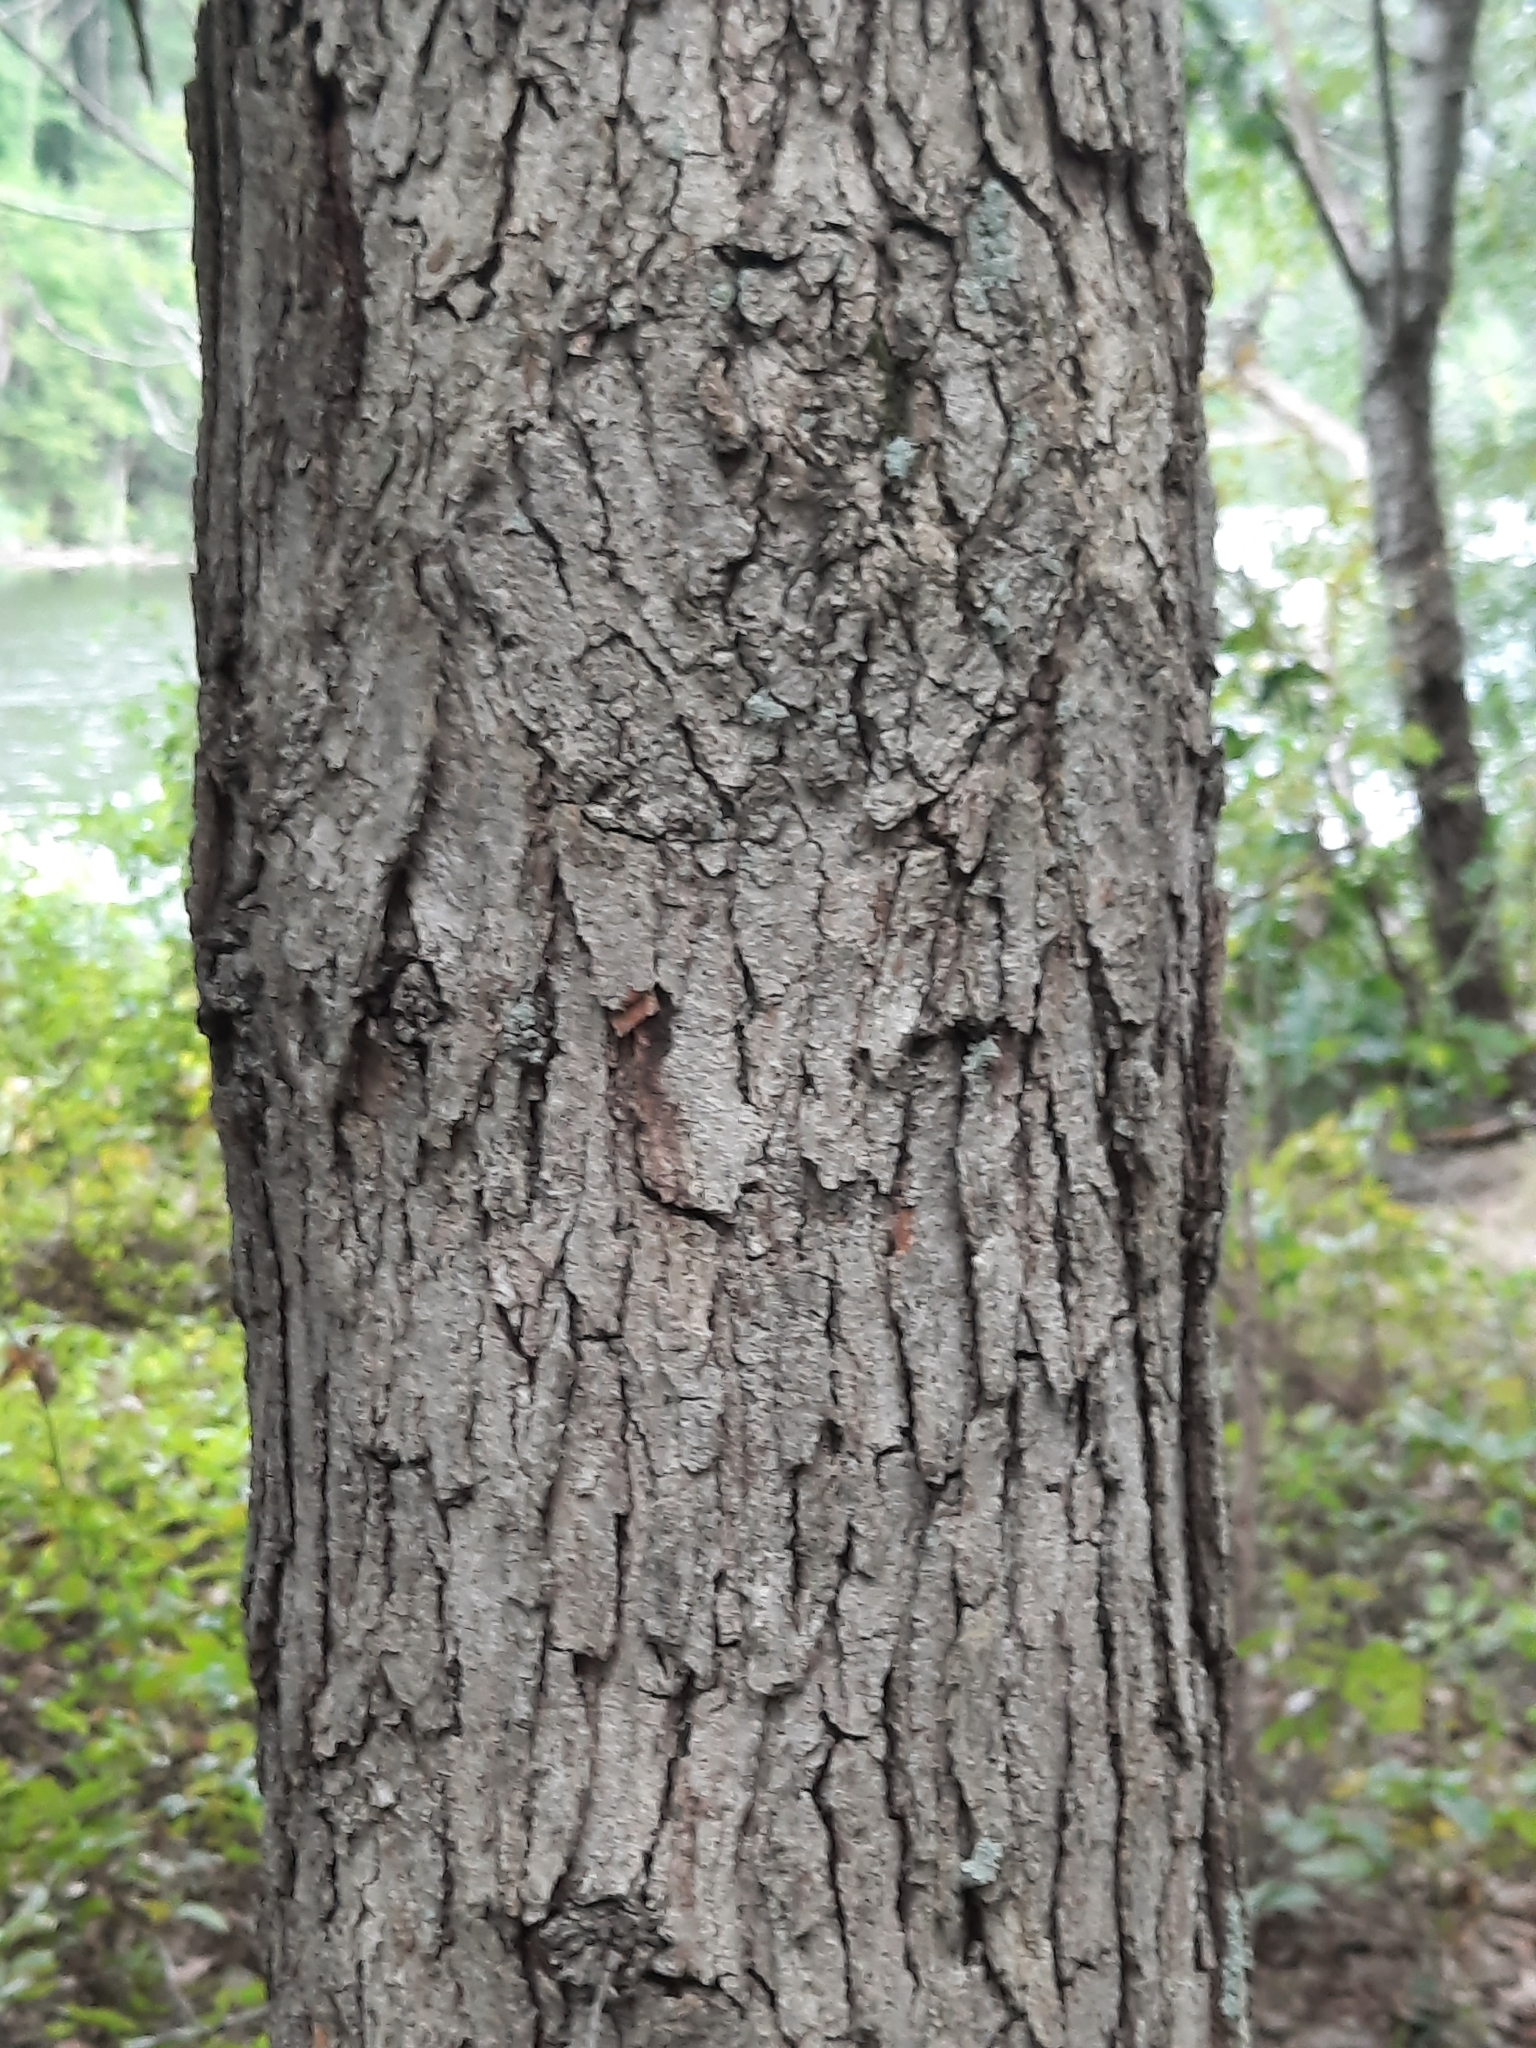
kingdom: Plantae
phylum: Tracheophyta
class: Magnoliopsida
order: Fagales
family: Fagaceae
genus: Quercus
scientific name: Quercus alba
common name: White oak
